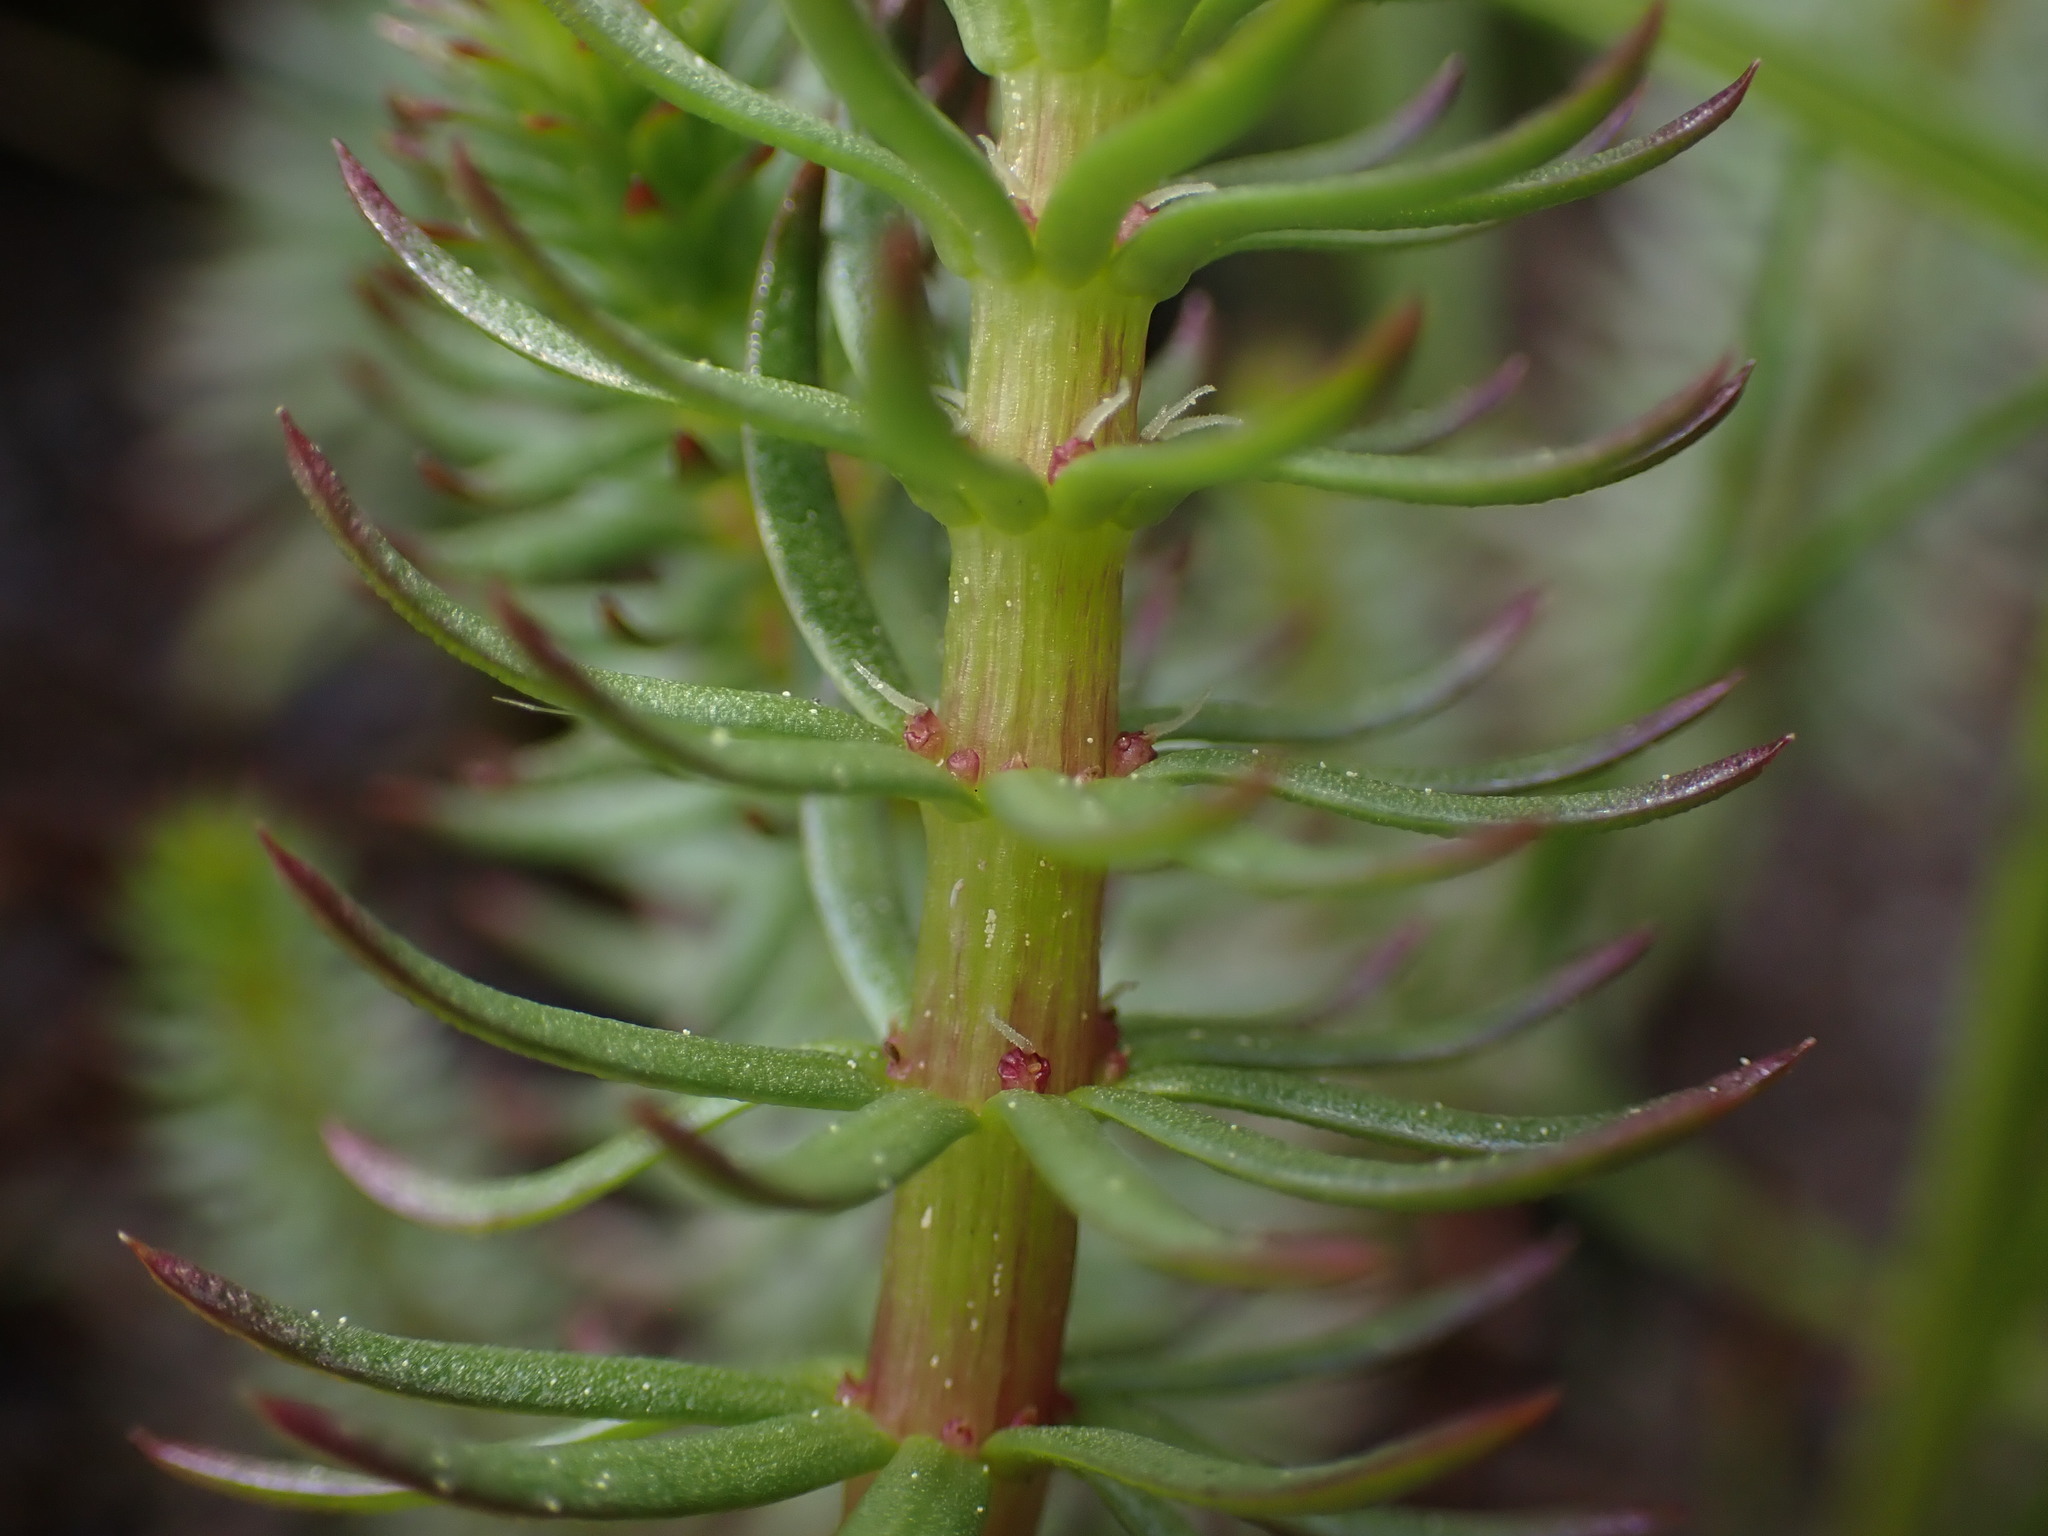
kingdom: Plantae
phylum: Tracheophyta
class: Magnoliopsida
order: Lamiales
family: Plantaginaceae
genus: Hippuris
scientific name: Hippuris vulgaris
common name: Mare's-tail
